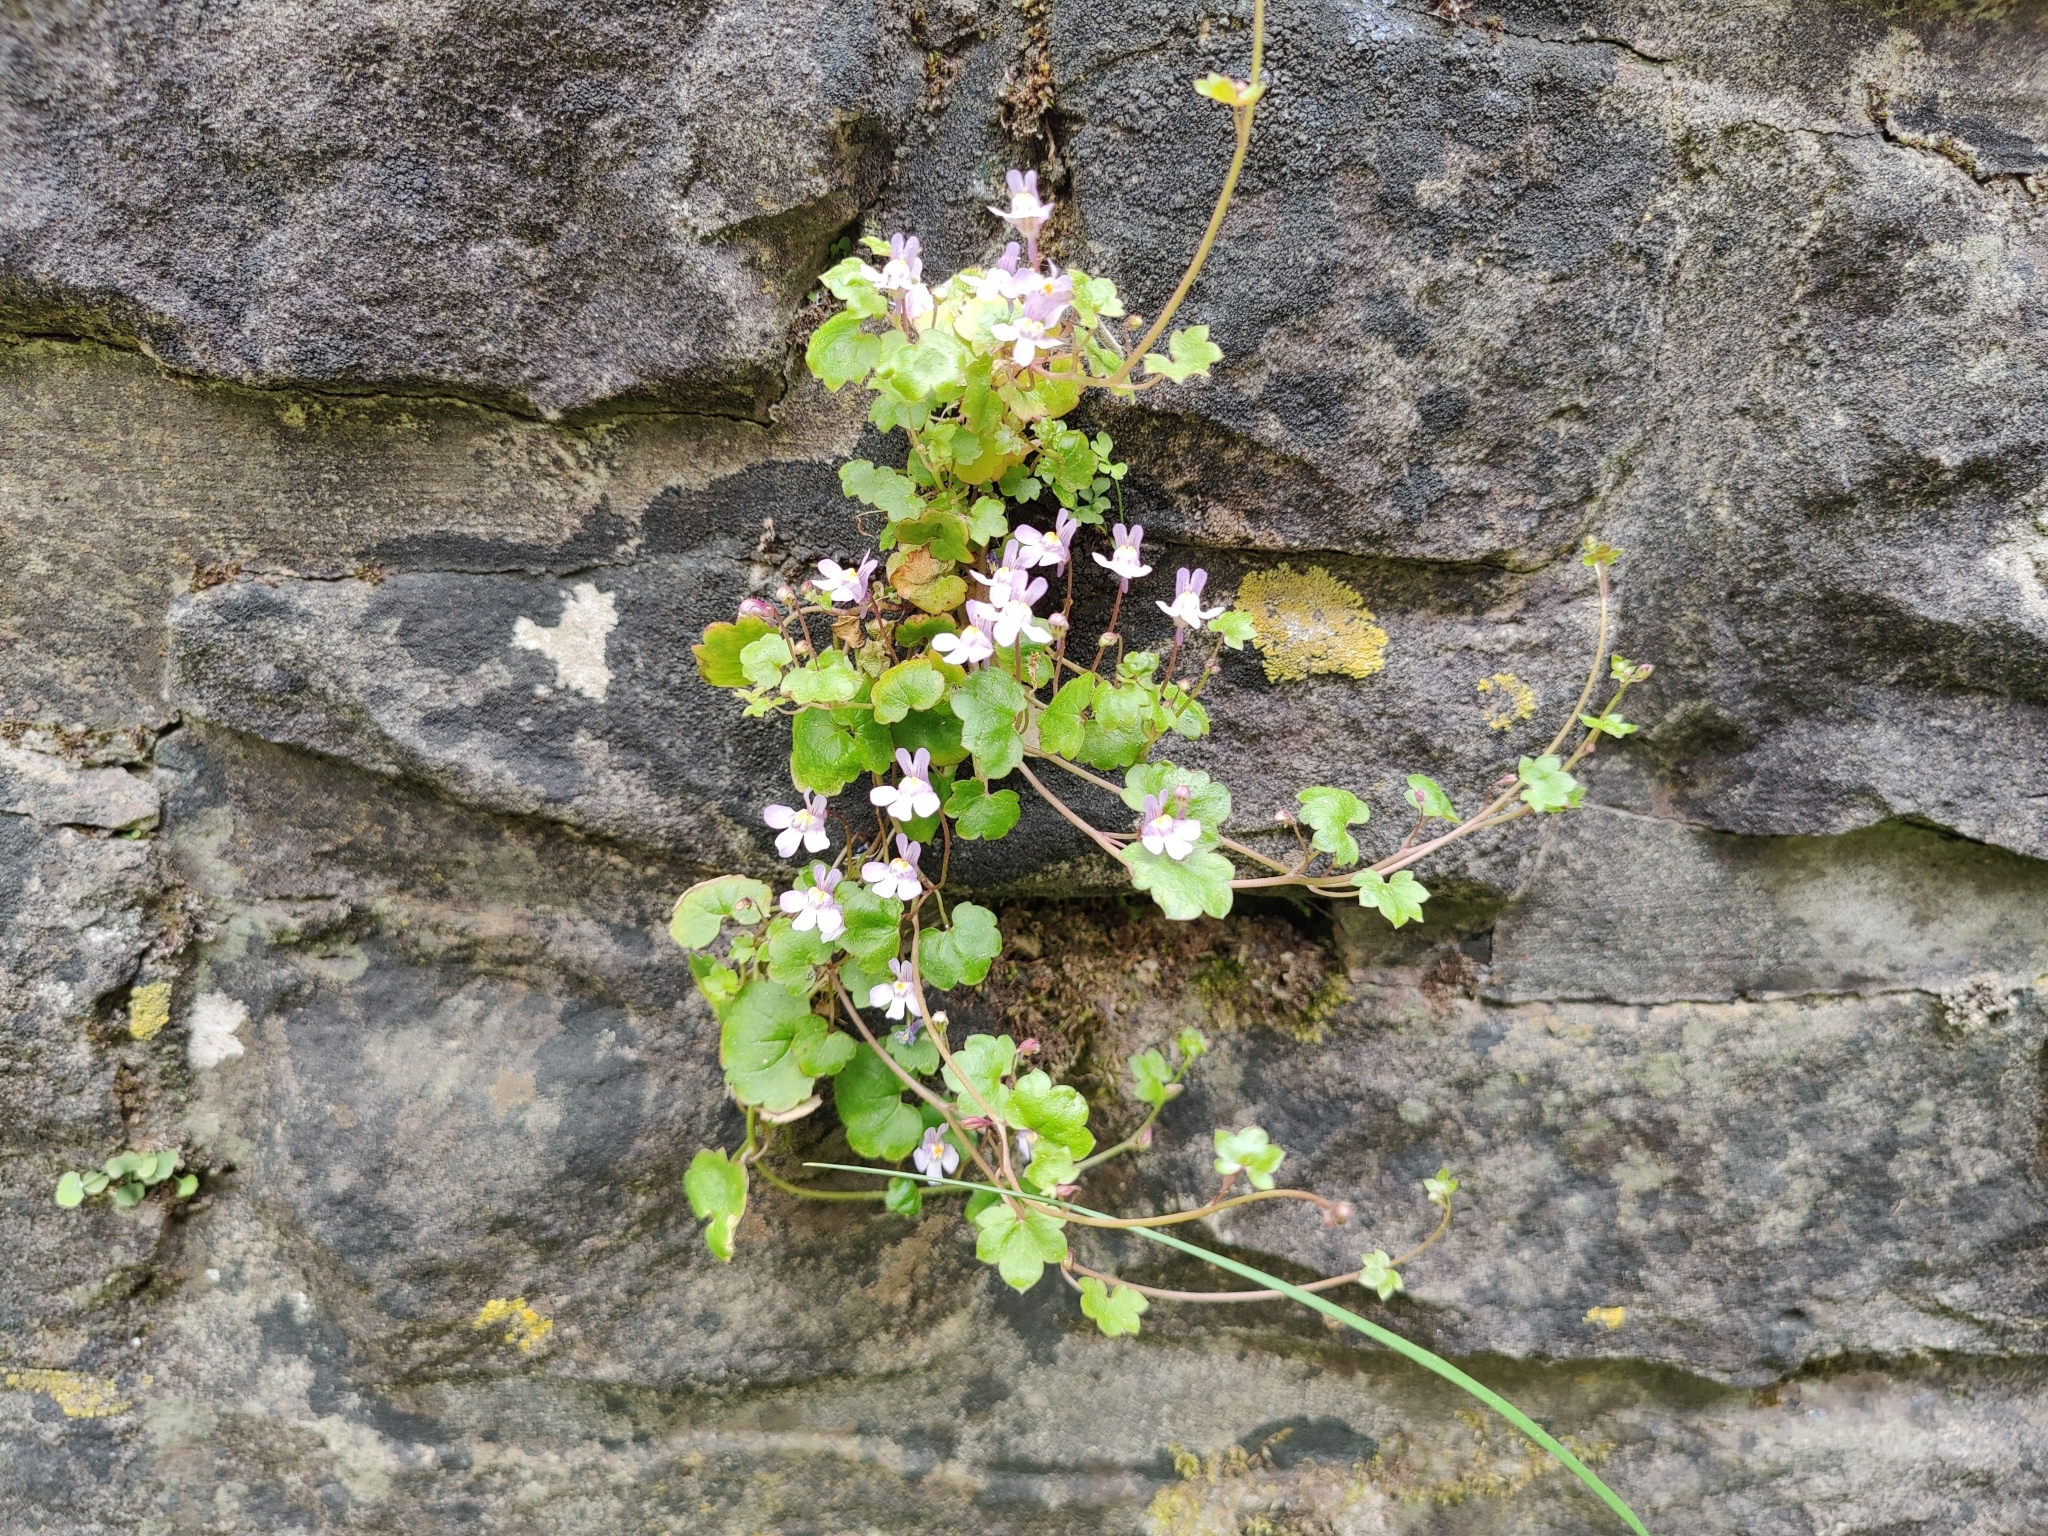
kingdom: Plantae
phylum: Tracheophyta
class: Magnoliopsida
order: Lamiales
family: Plantaginaceae
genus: Cymbalaria
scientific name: Cymbalaria muralis
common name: Ivy-leaved toadflax
